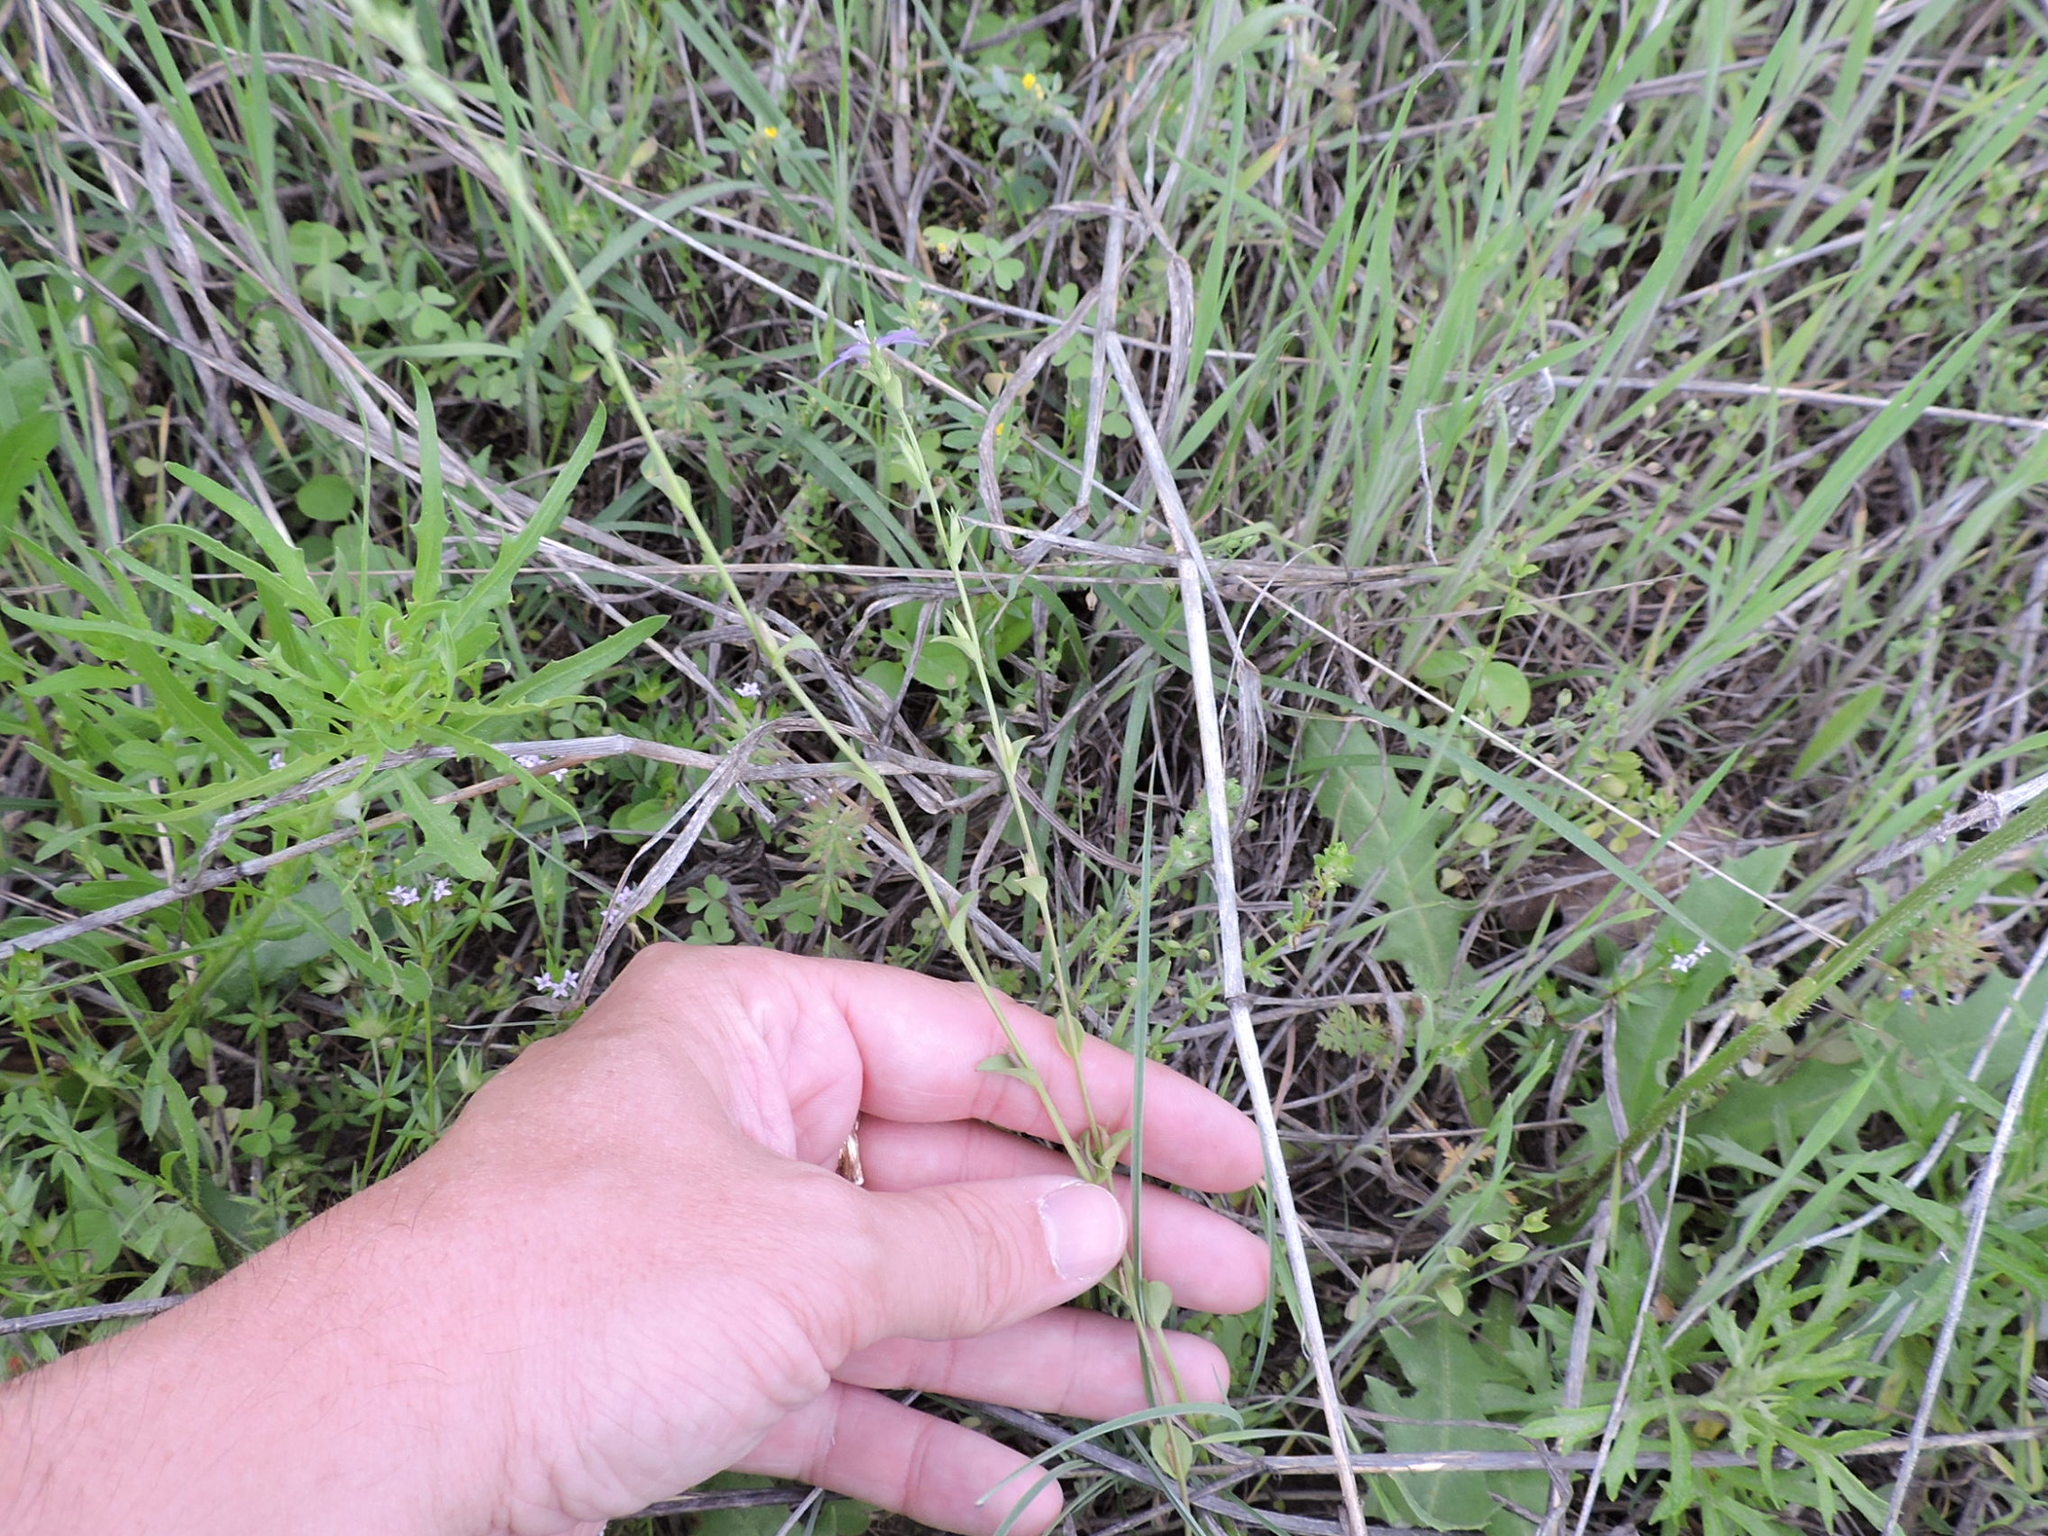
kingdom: Plantae
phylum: Tracheophyta
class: Magnoliopsida
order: Asterales
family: Campanulaceae
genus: Triodanis
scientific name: Triodanis biflora
